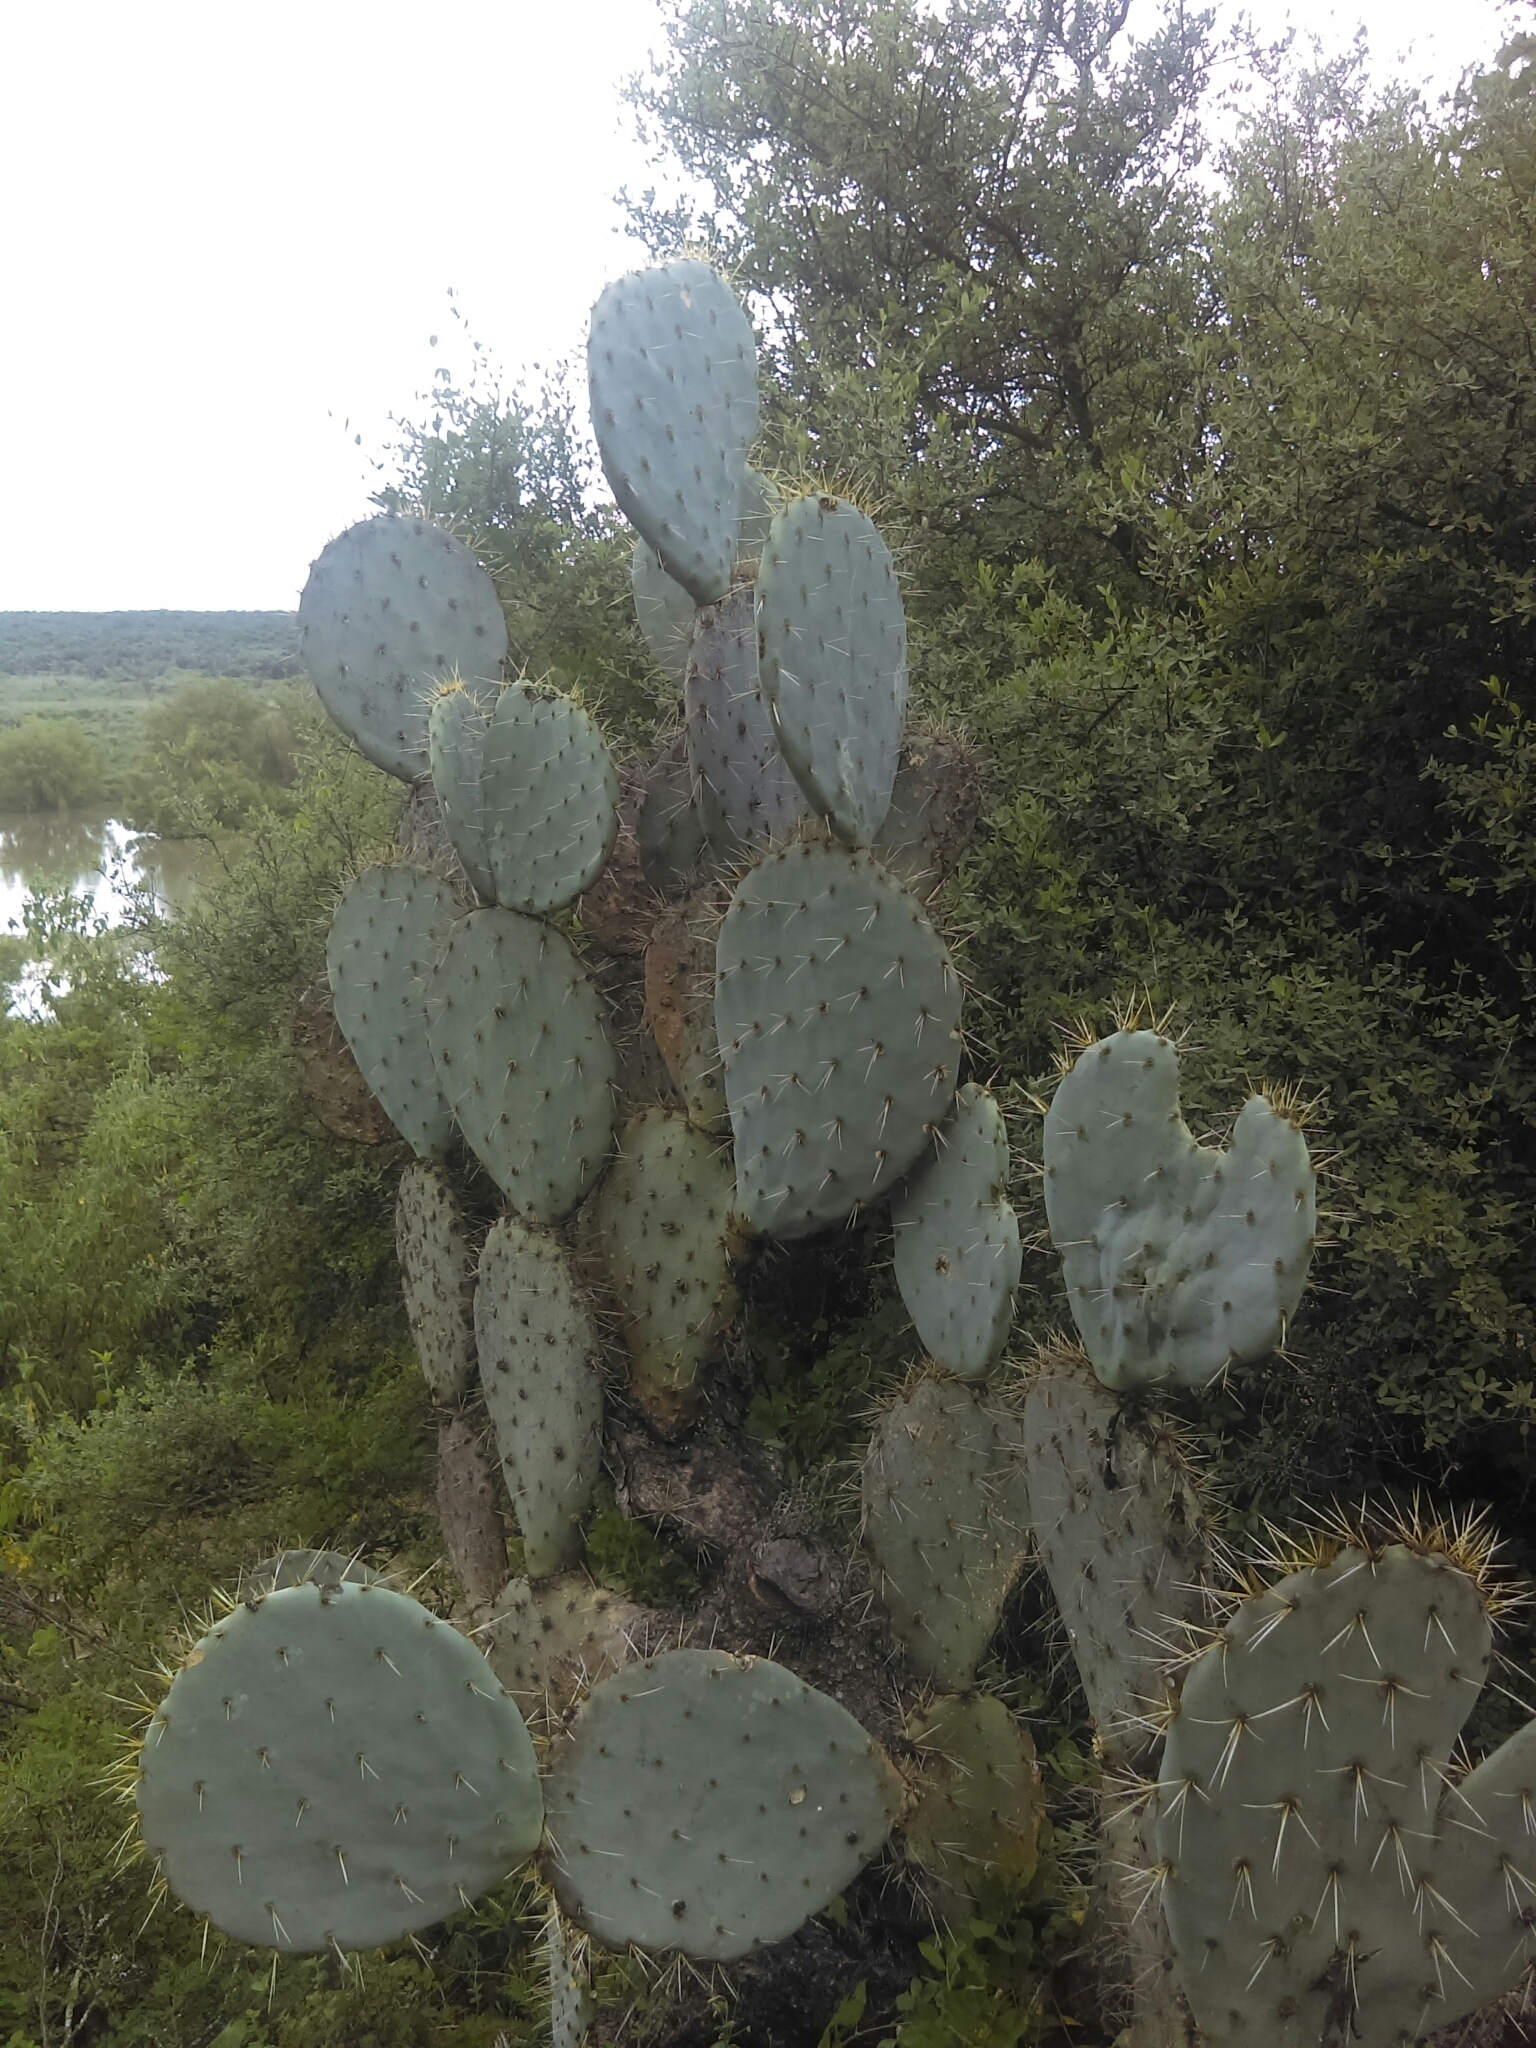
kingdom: Plantae
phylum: Tracheophyta
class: Magnoliopsida
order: Caryophyllales
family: Cactaceae
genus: Opuntia
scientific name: Opuntia robusta
